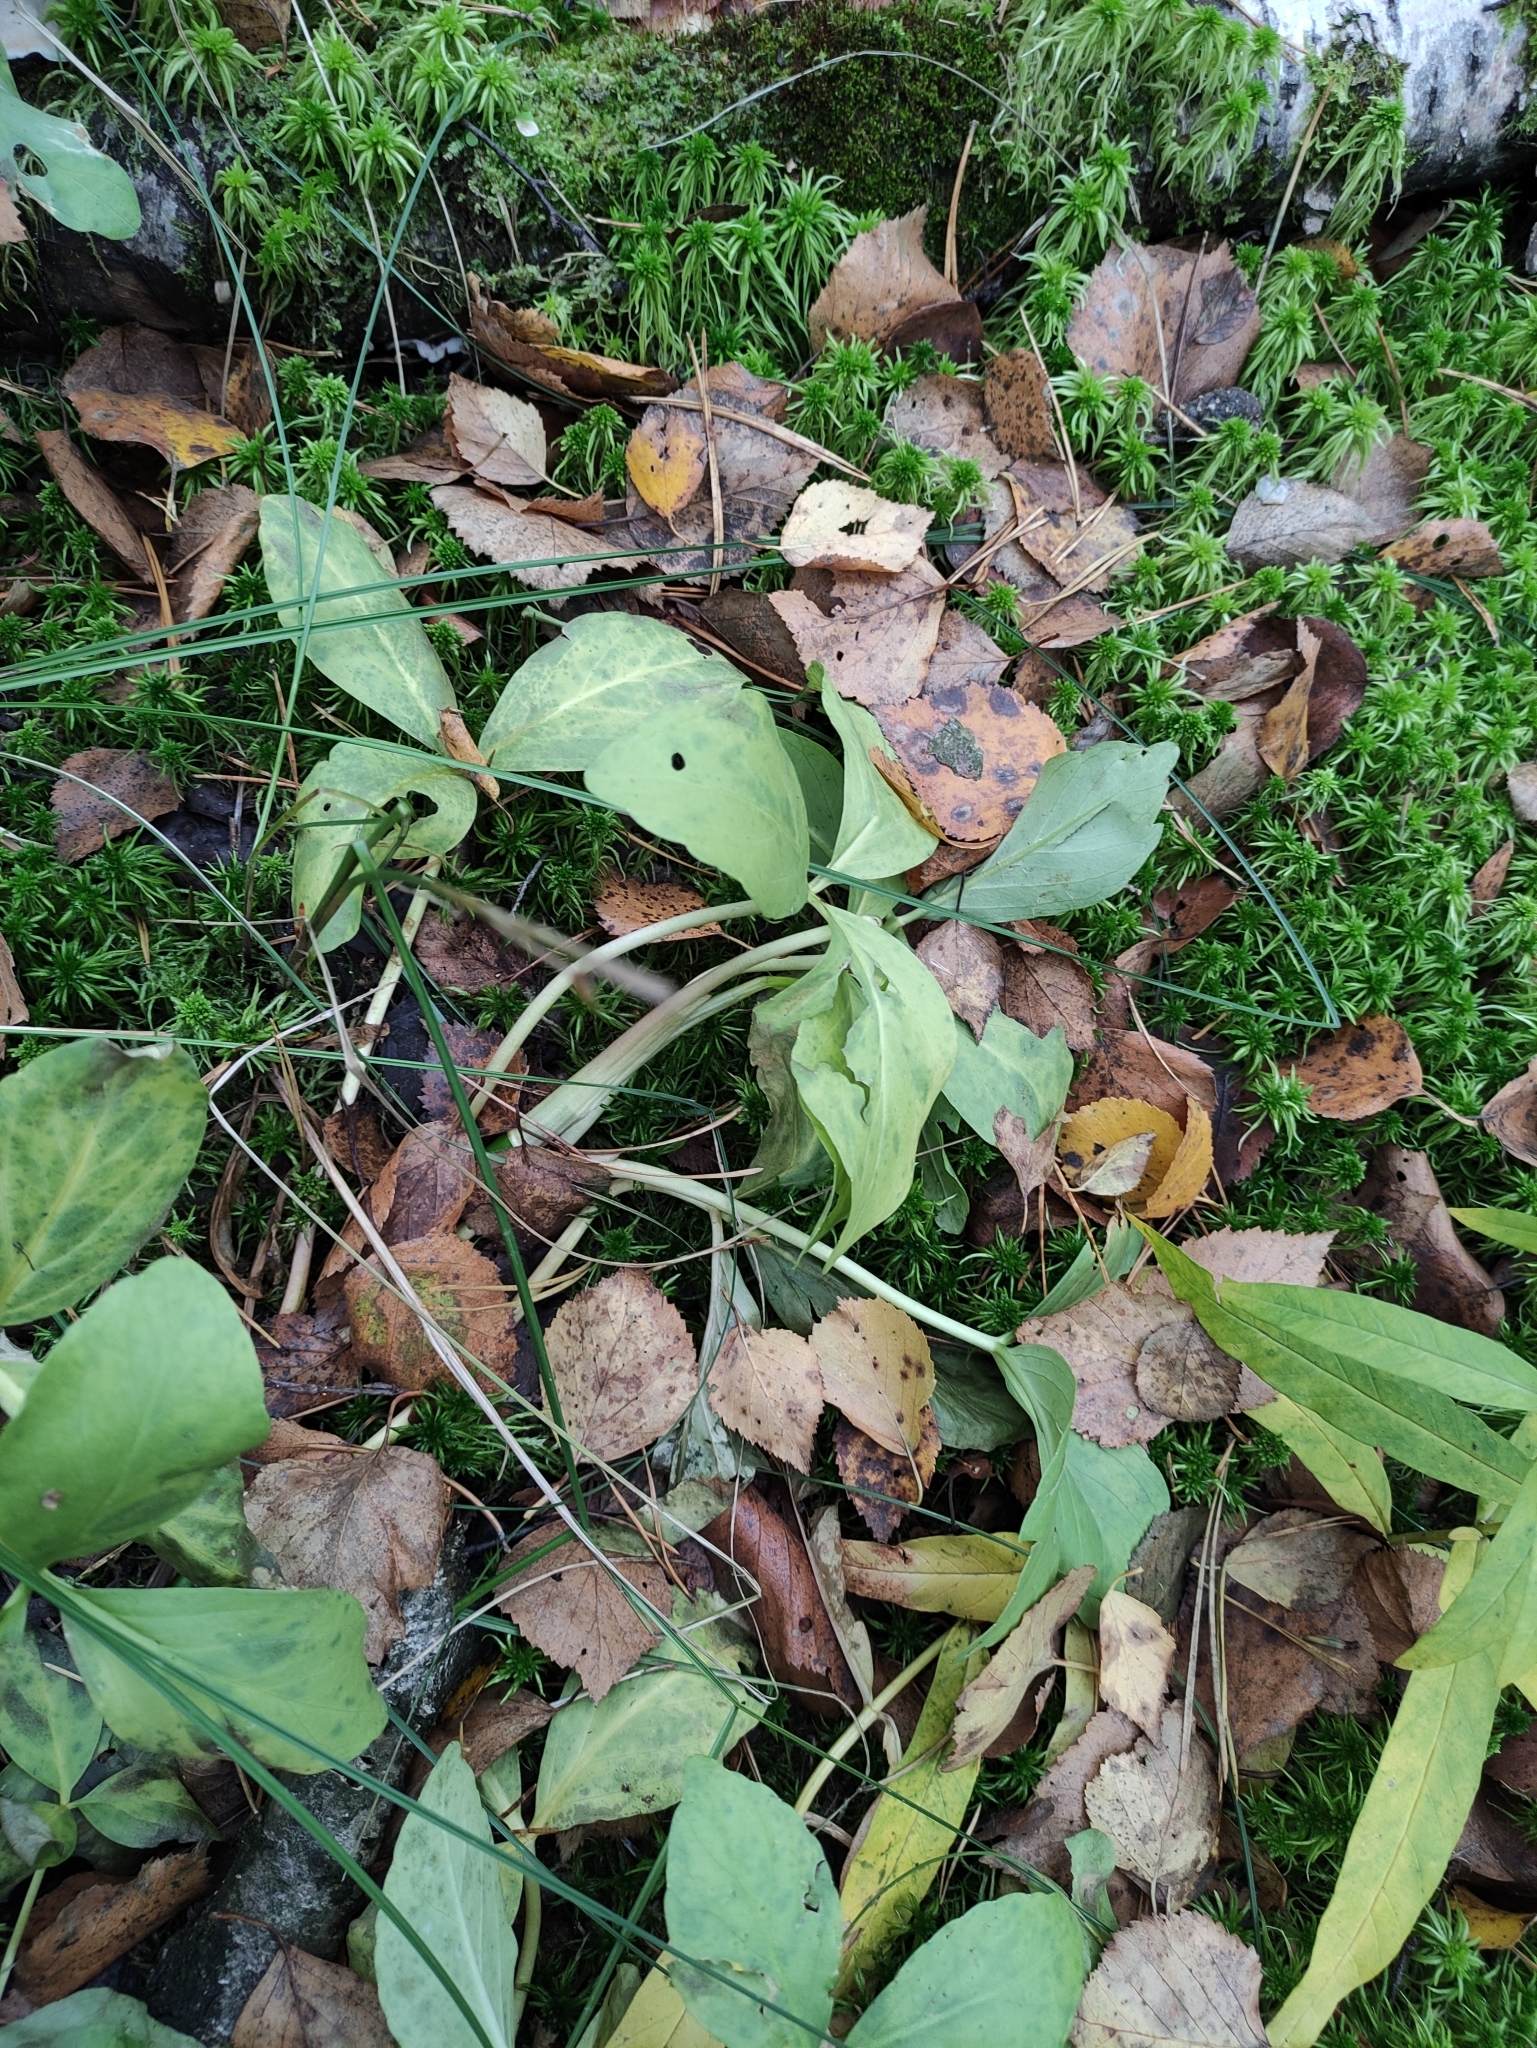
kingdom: Plantae
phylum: Tracheophyta
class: Magnoliopsida
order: Asterales
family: Menyanthaceae
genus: Menyanthes
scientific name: Menyanthes trifoliata
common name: Bogbean
